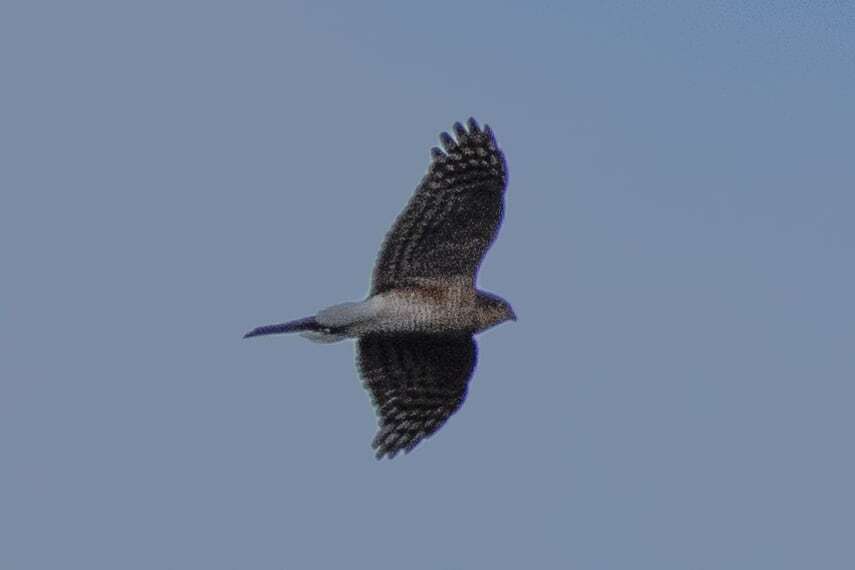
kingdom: Animalia
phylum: Chordata
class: Aves
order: Accipitriformes
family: Accipitridae
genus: Accipiter
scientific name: Accipiter nisus
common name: Eurasian sparrowhawk
